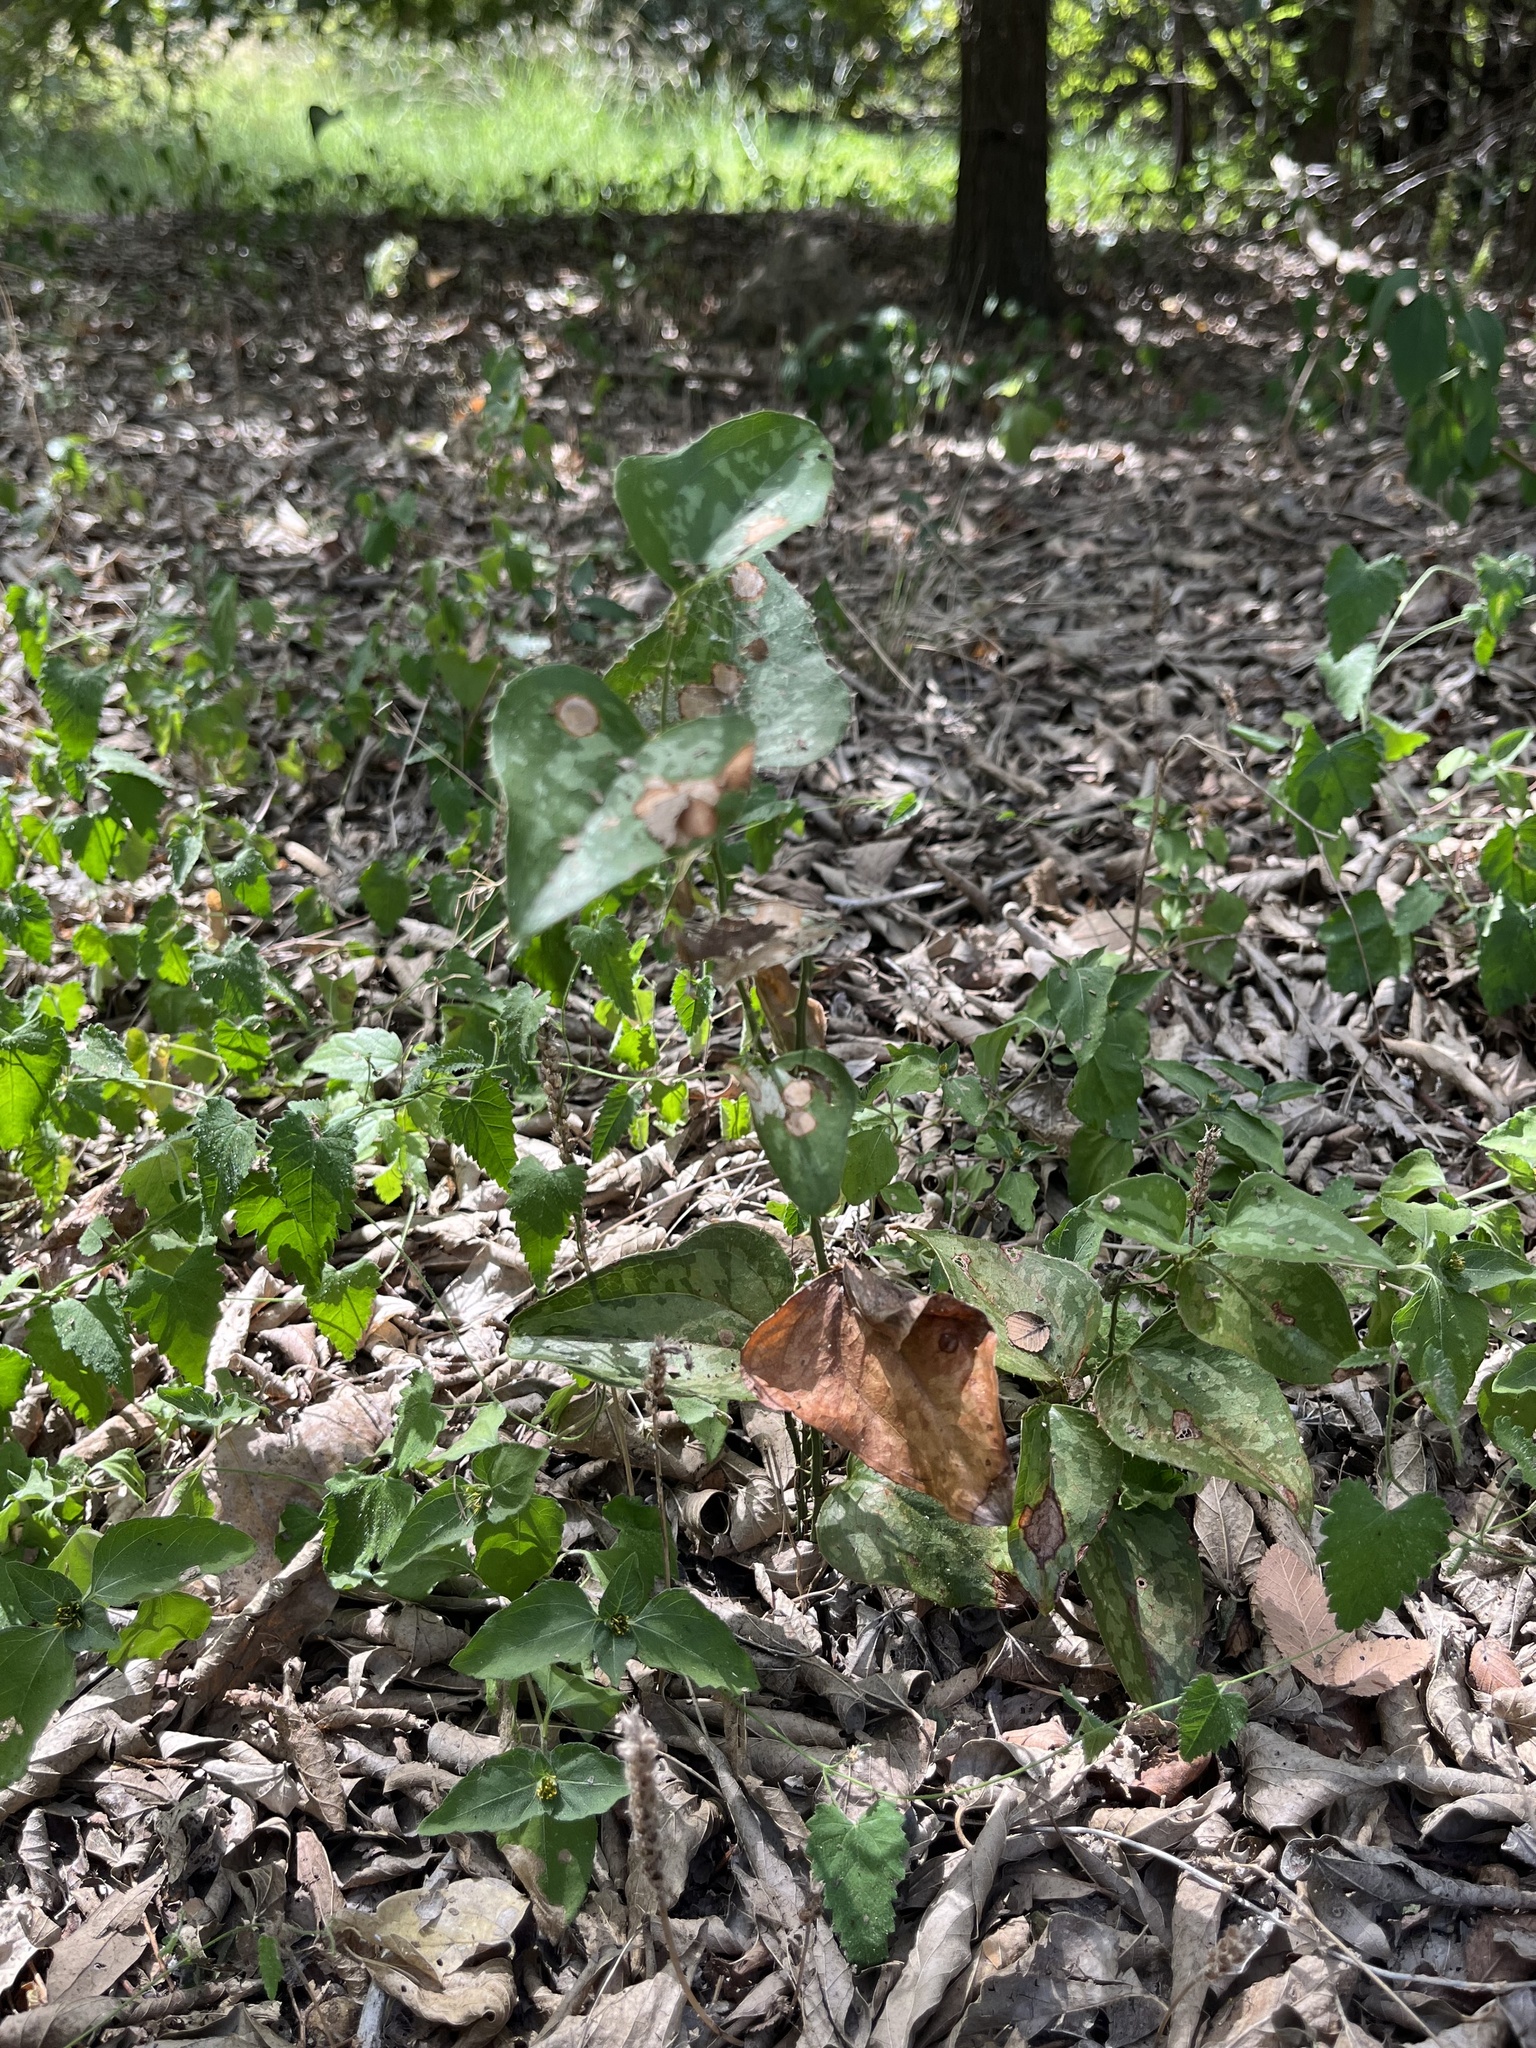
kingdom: Plantae
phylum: Tracheophyta
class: Liliopsida
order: Liliales
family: Smilacaceae
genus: Smilax
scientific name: Smilax bona-nox
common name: Catbrier
